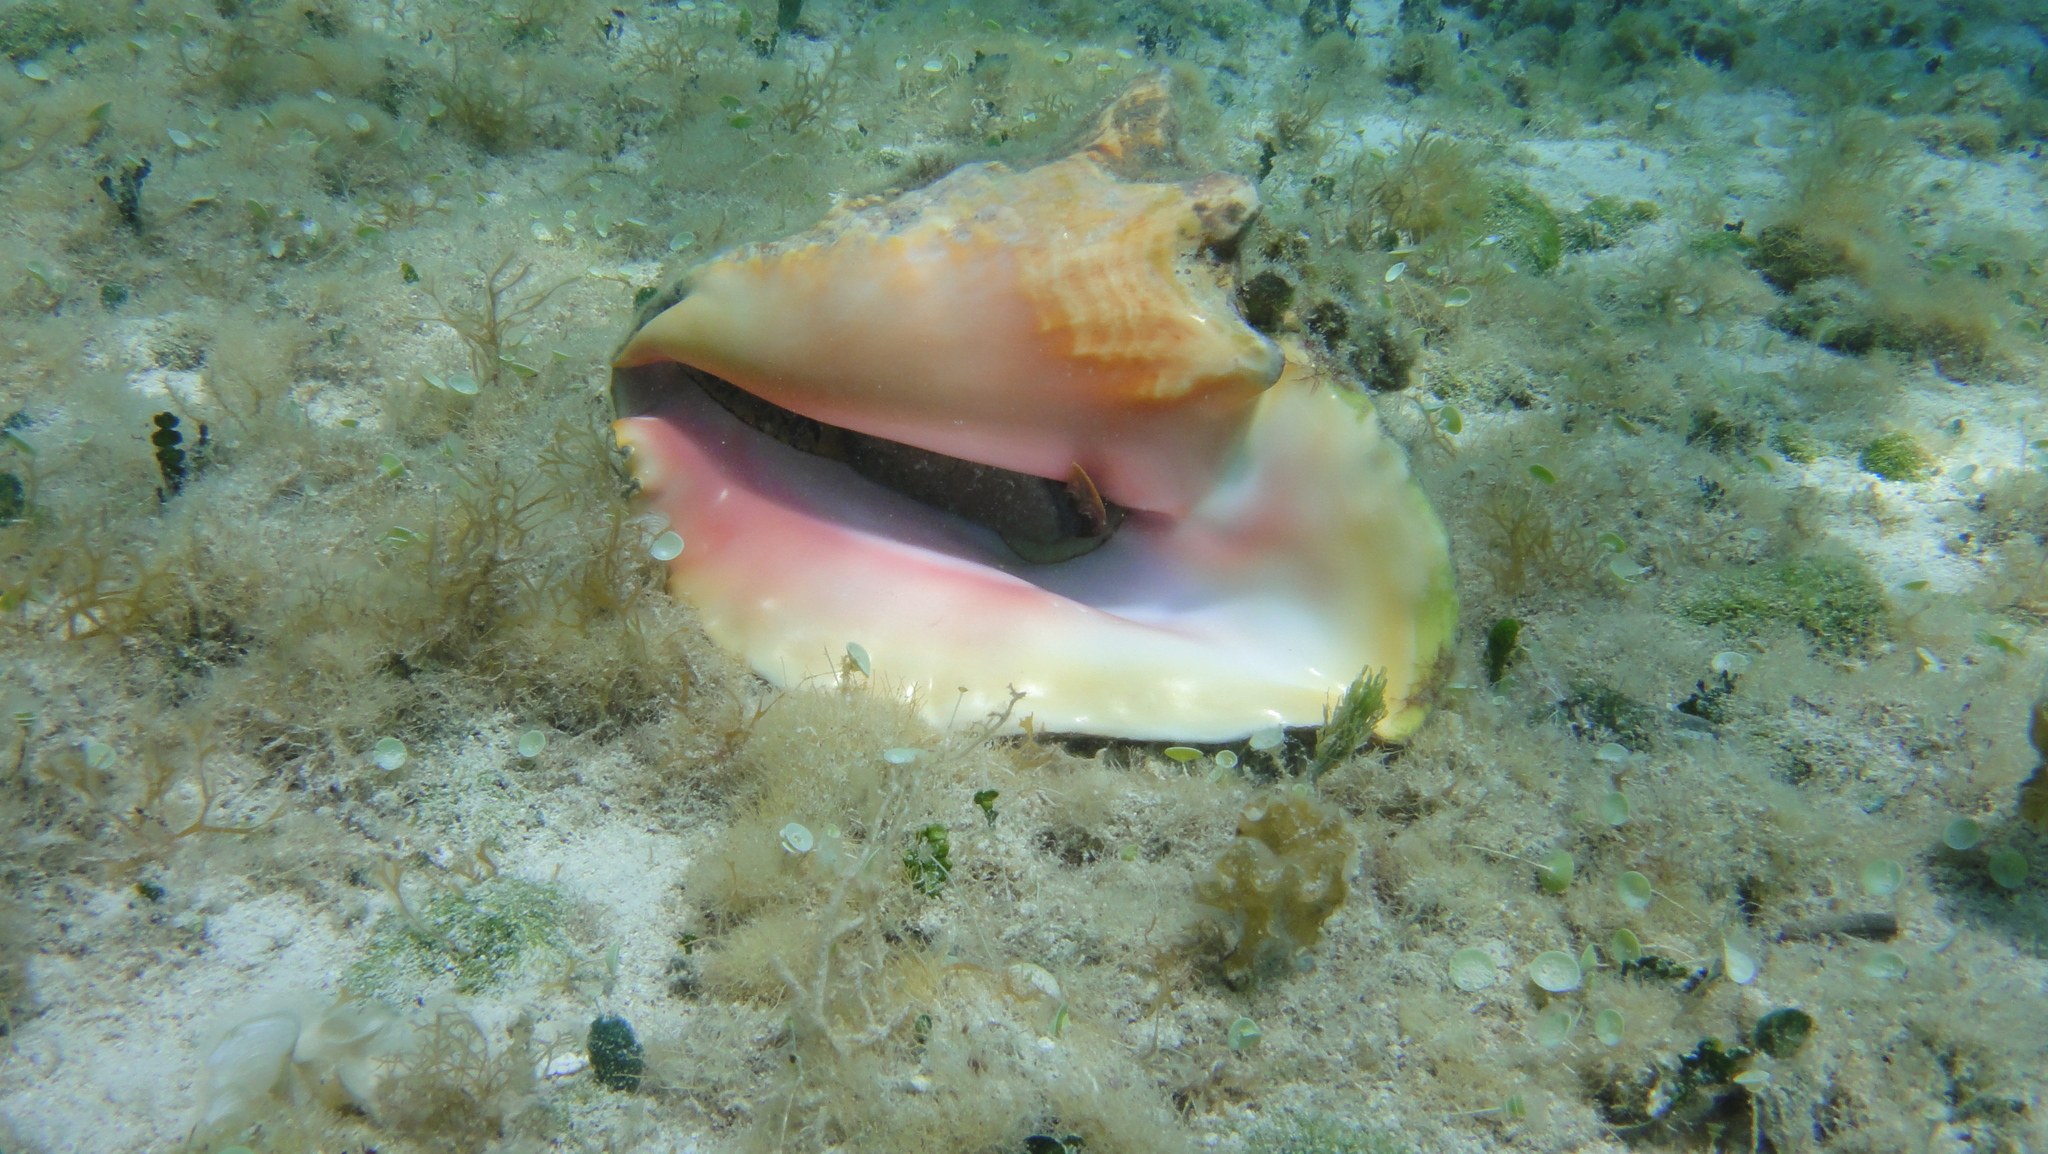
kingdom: Animalia
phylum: Mollusca
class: Gastropoda
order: Littorinimorpha
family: Strombidae
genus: Aliger
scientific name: Aliger gigas
